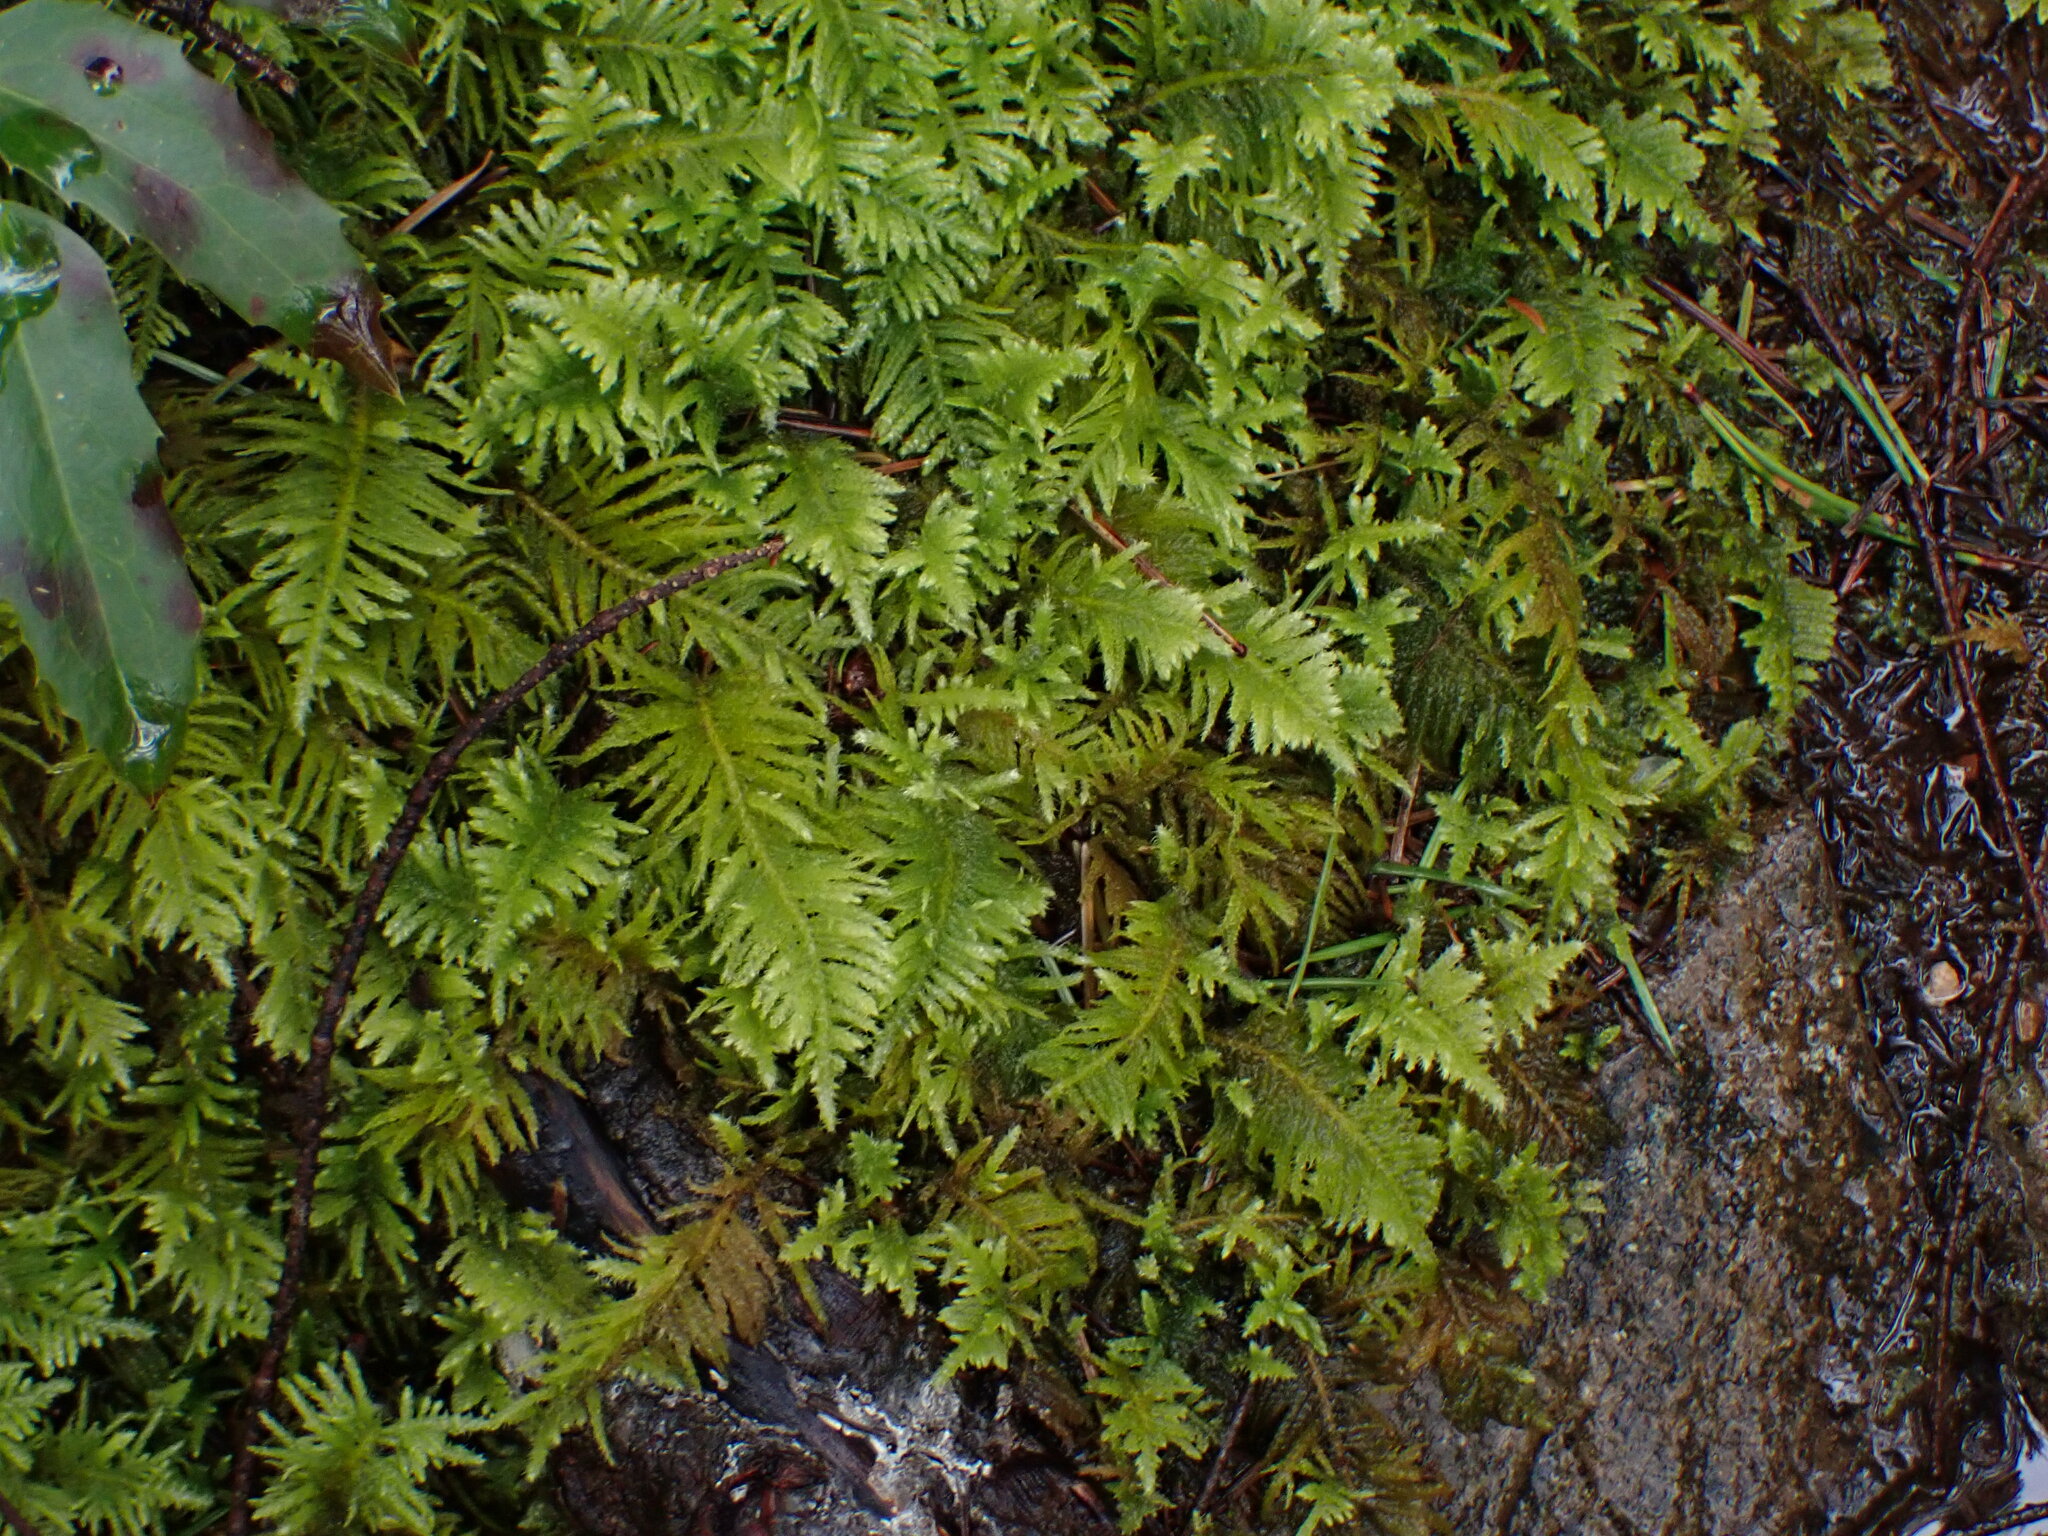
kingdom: Plantae
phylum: Bryophyta
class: Bryopsida
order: Hypnales
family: Brachytheciaceae
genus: Kindbergia
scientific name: Kindbergia oregana
